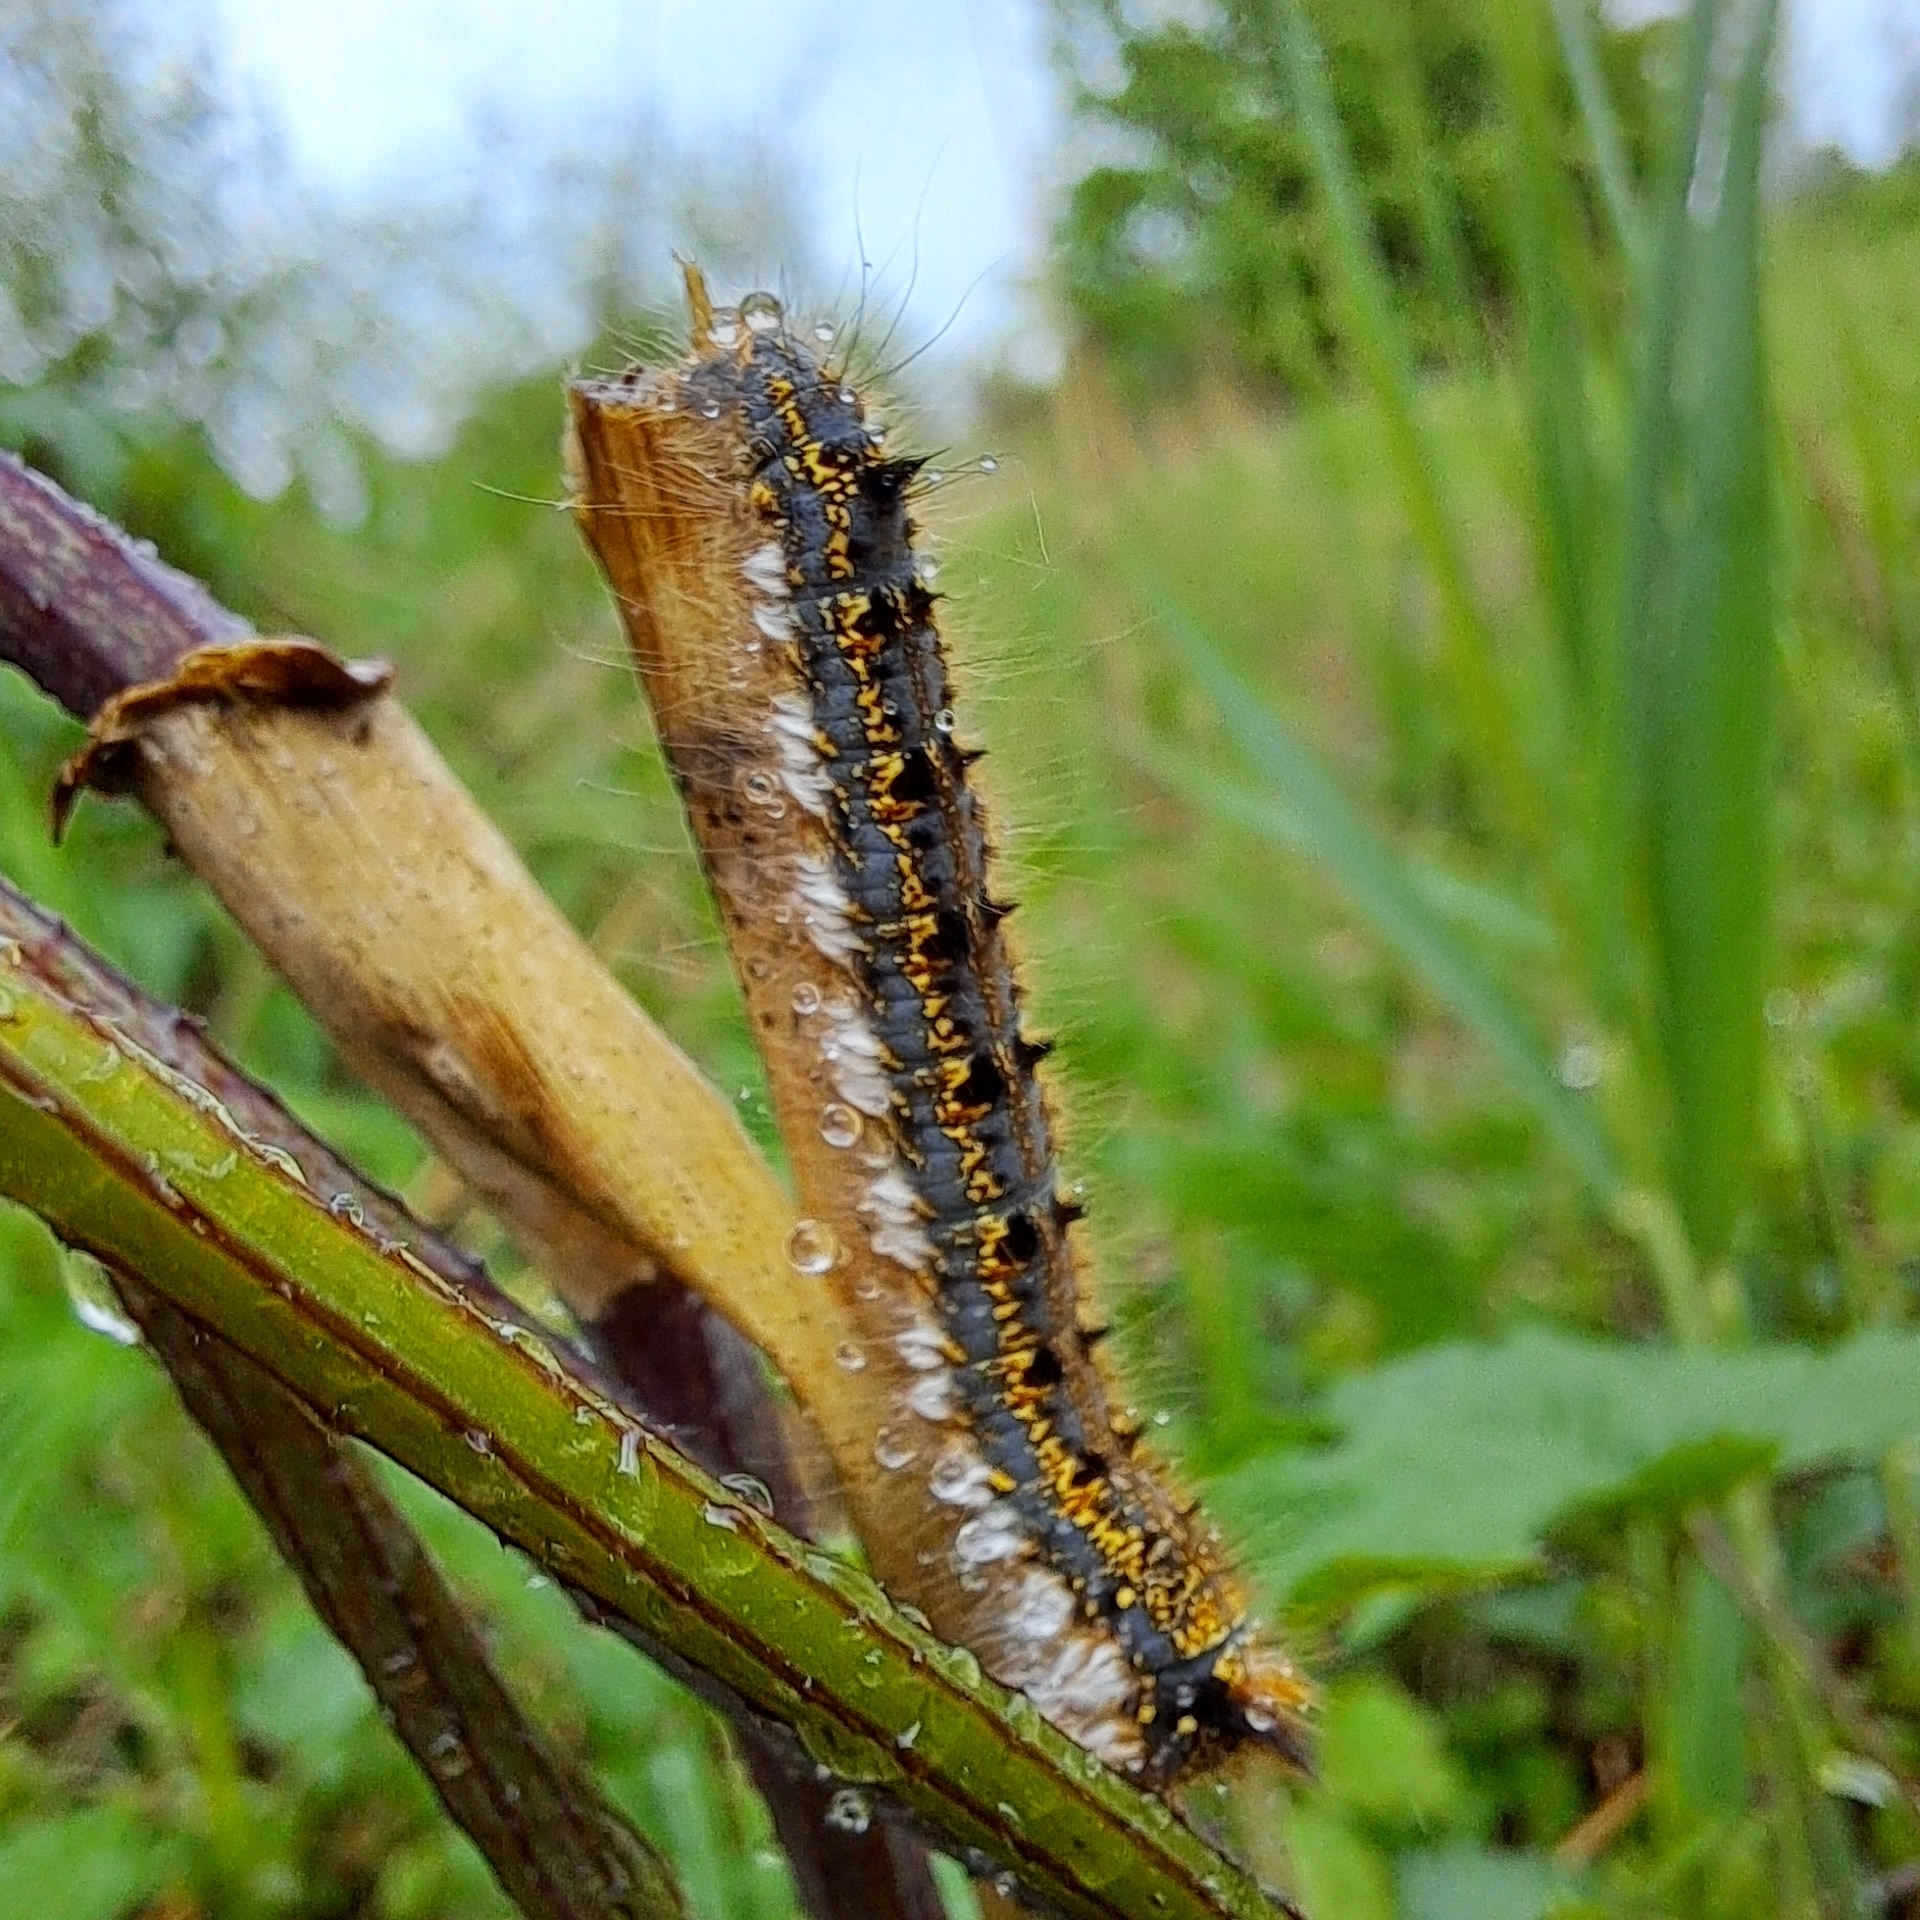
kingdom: Animalia
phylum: Arthropoda
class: Insecta
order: Lepidoptera
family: Lasiocampidae
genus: Euthrix
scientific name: Euthrix potatoria
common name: Drinker
